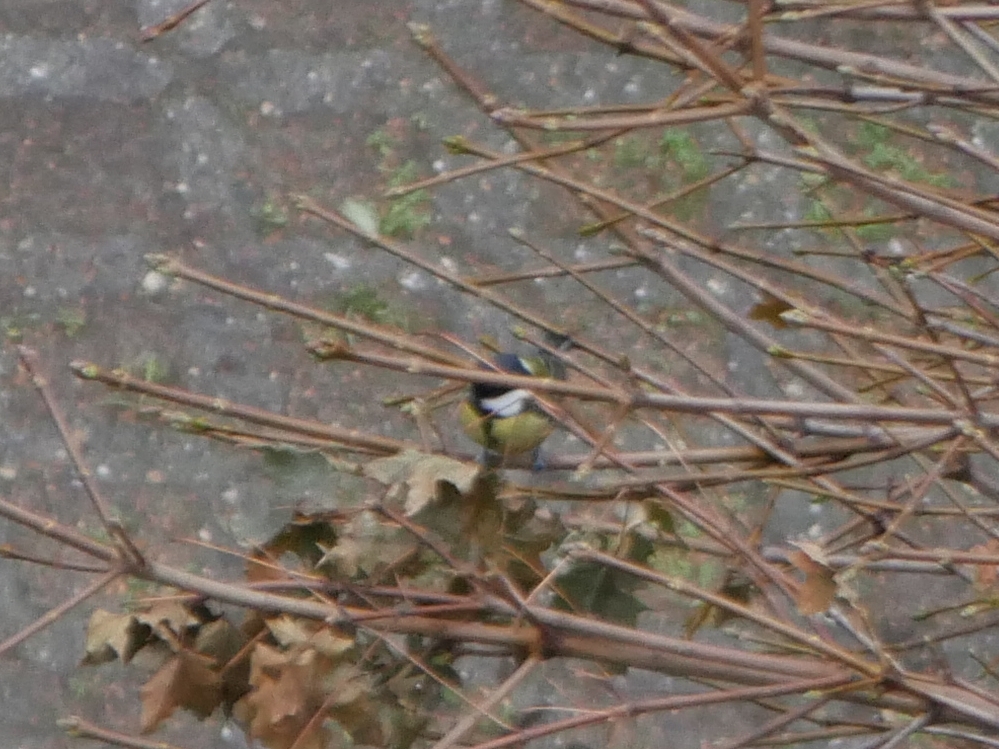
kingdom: Animalia
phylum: Chordata
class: Aves
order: Passeriformes
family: Paridae
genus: Parus
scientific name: Parus major
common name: Great tit
